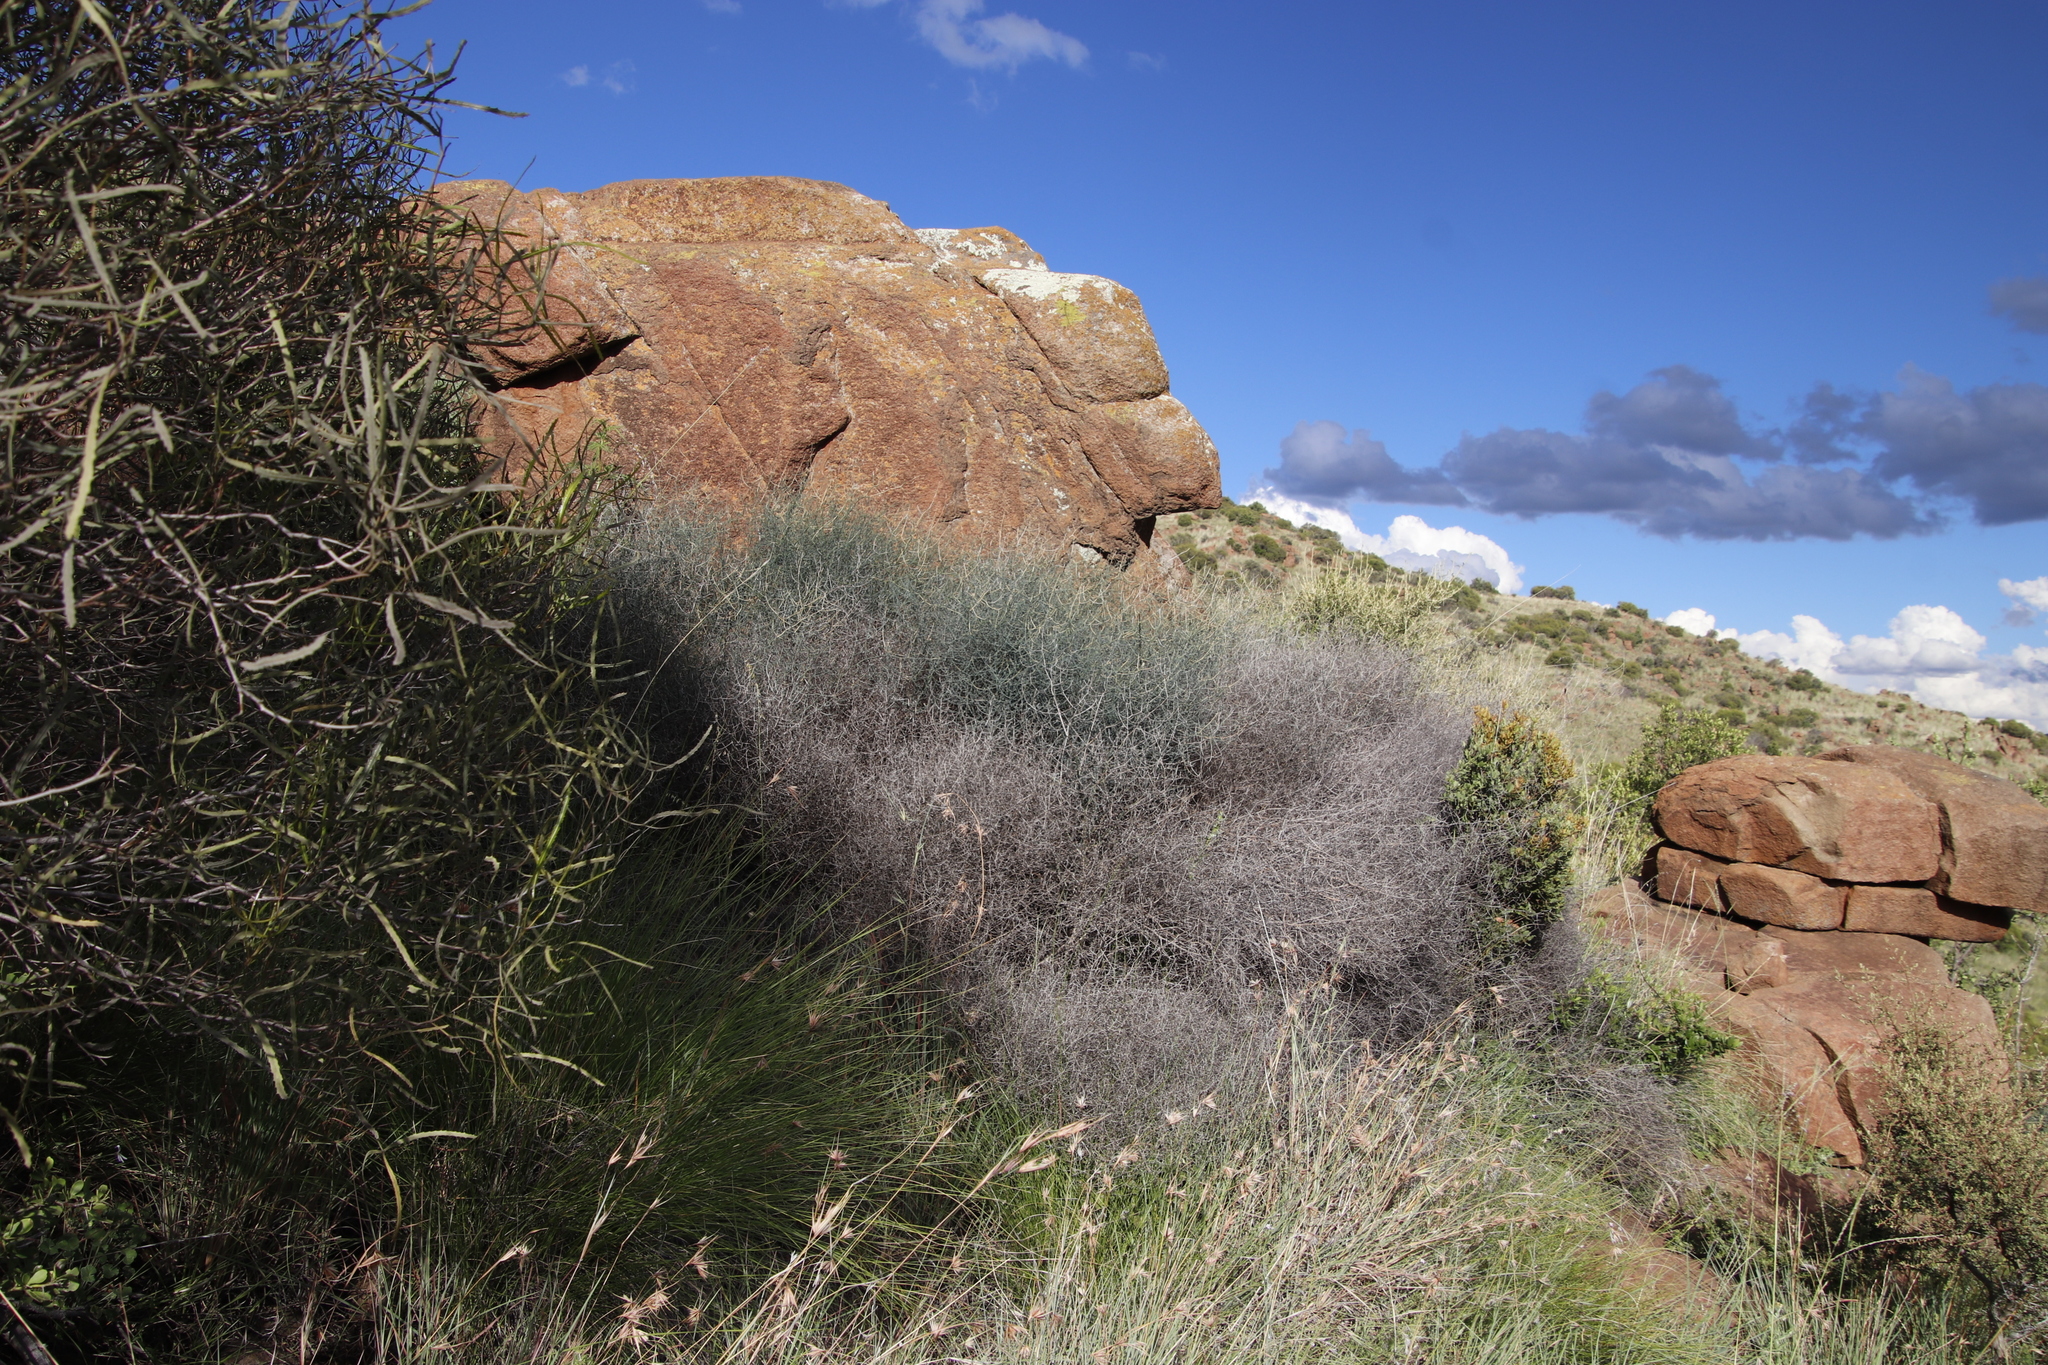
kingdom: Plantae
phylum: Tracheophyta
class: Liliopsida
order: Asparagales
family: Asparagaceae
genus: Asparagus
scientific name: Asparagus denudatus
